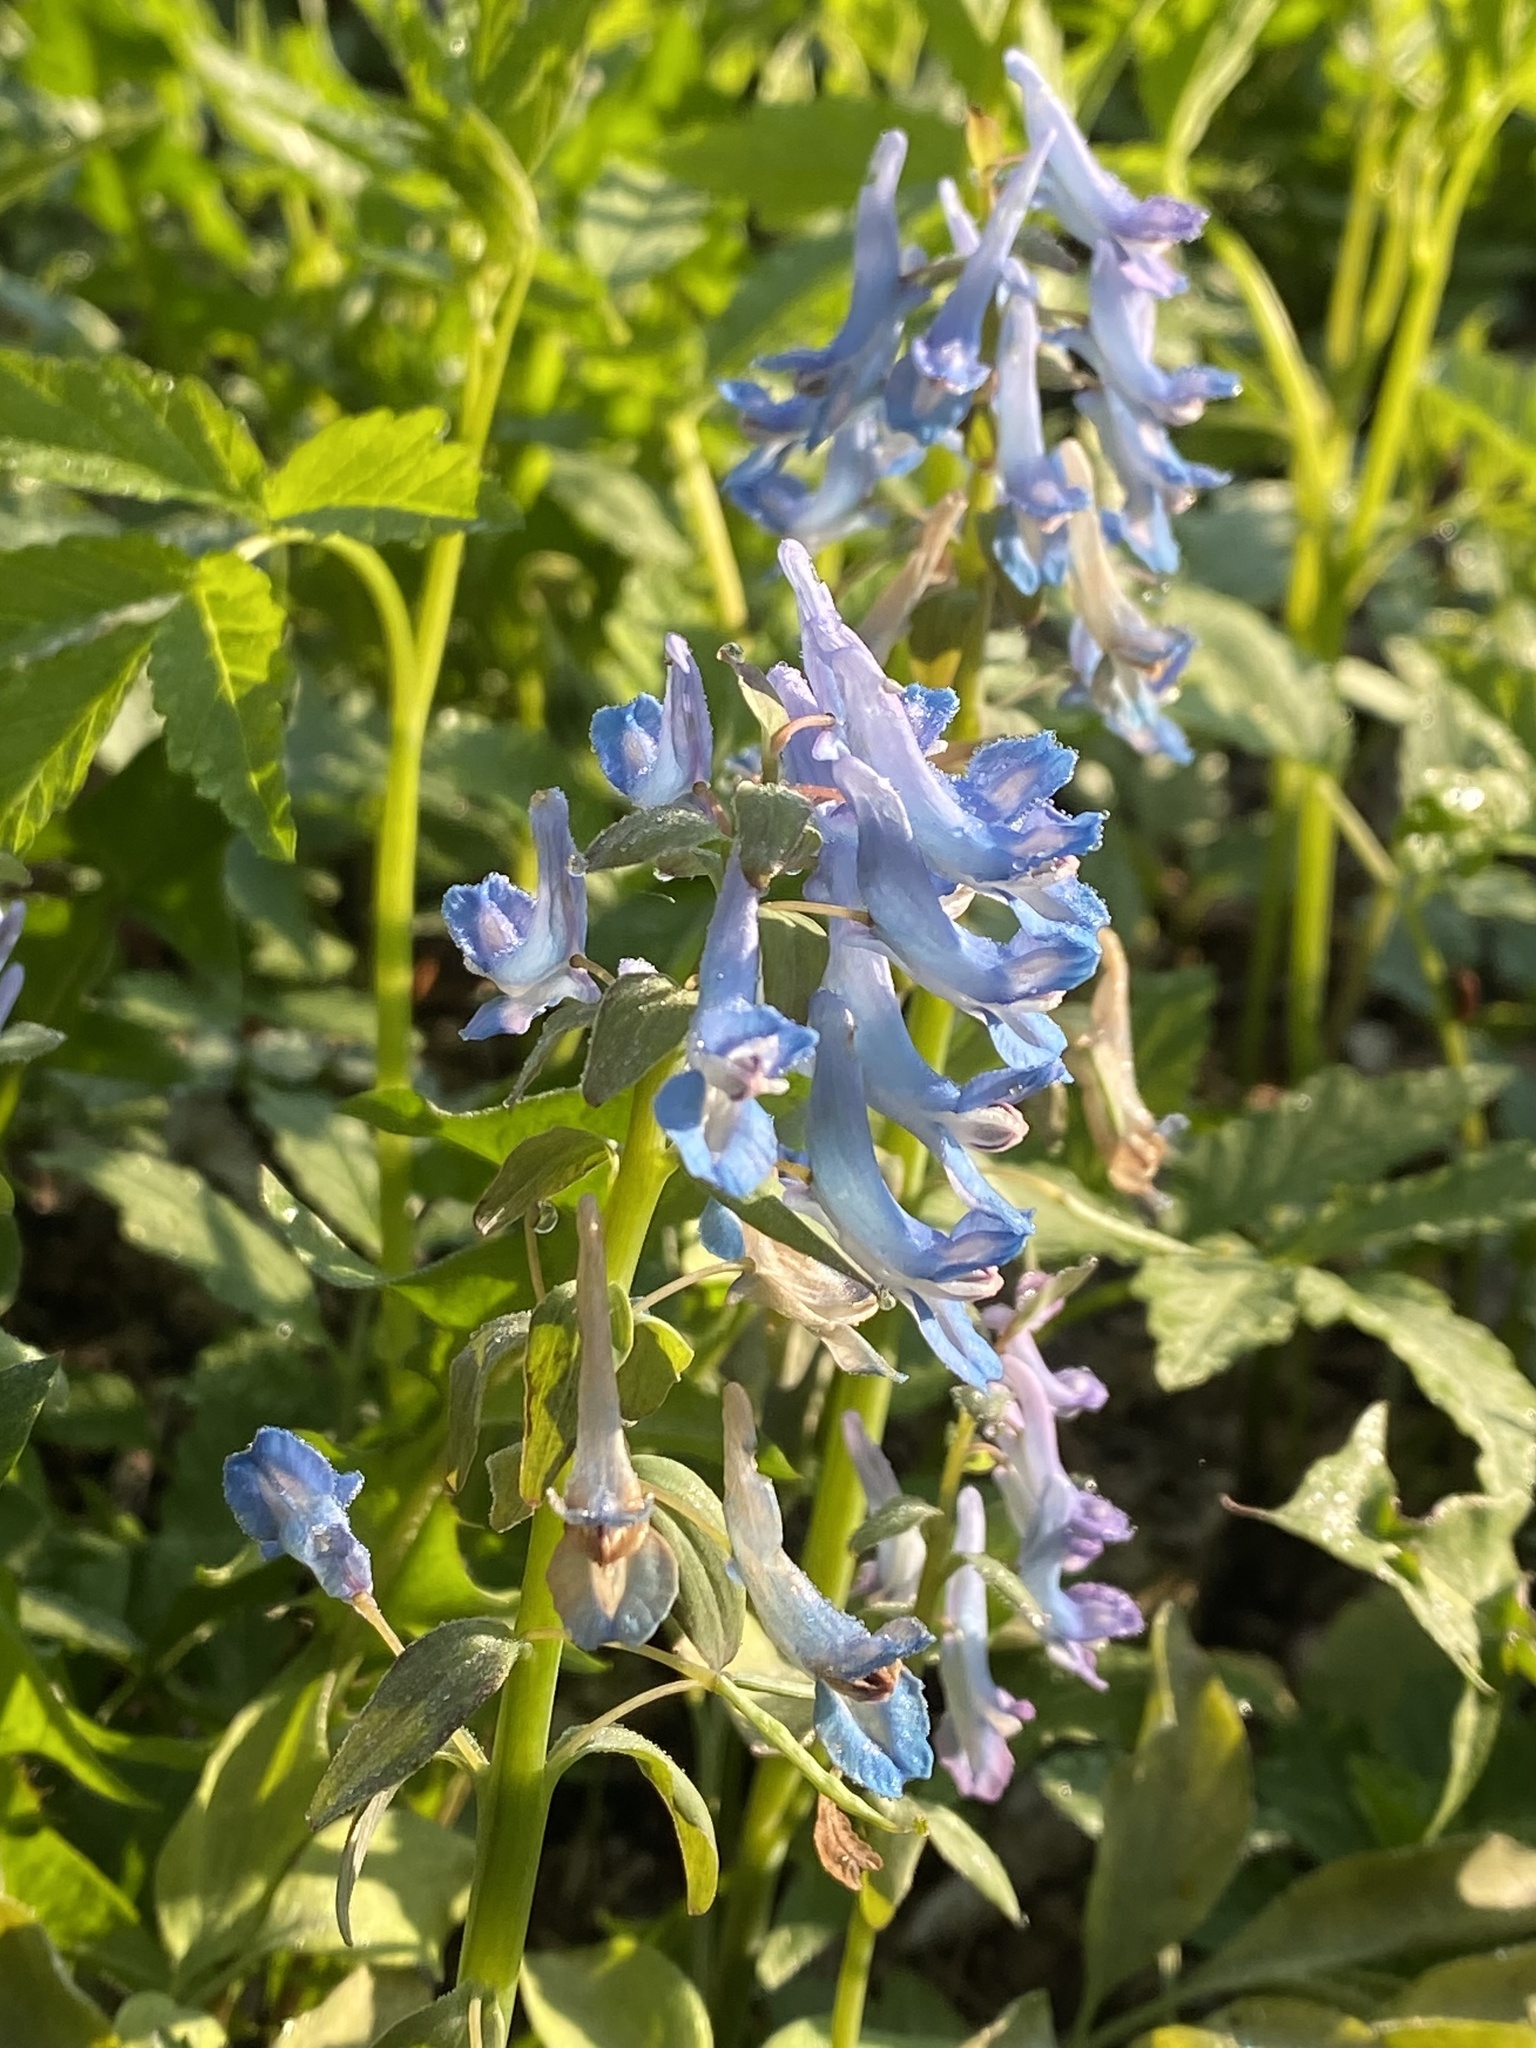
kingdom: Plantae
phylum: Tracheophyta
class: Magnoliopsida
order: Ranunculales
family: Papaveraceae
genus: Corydalis
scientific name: Corydalis fumariifolia
